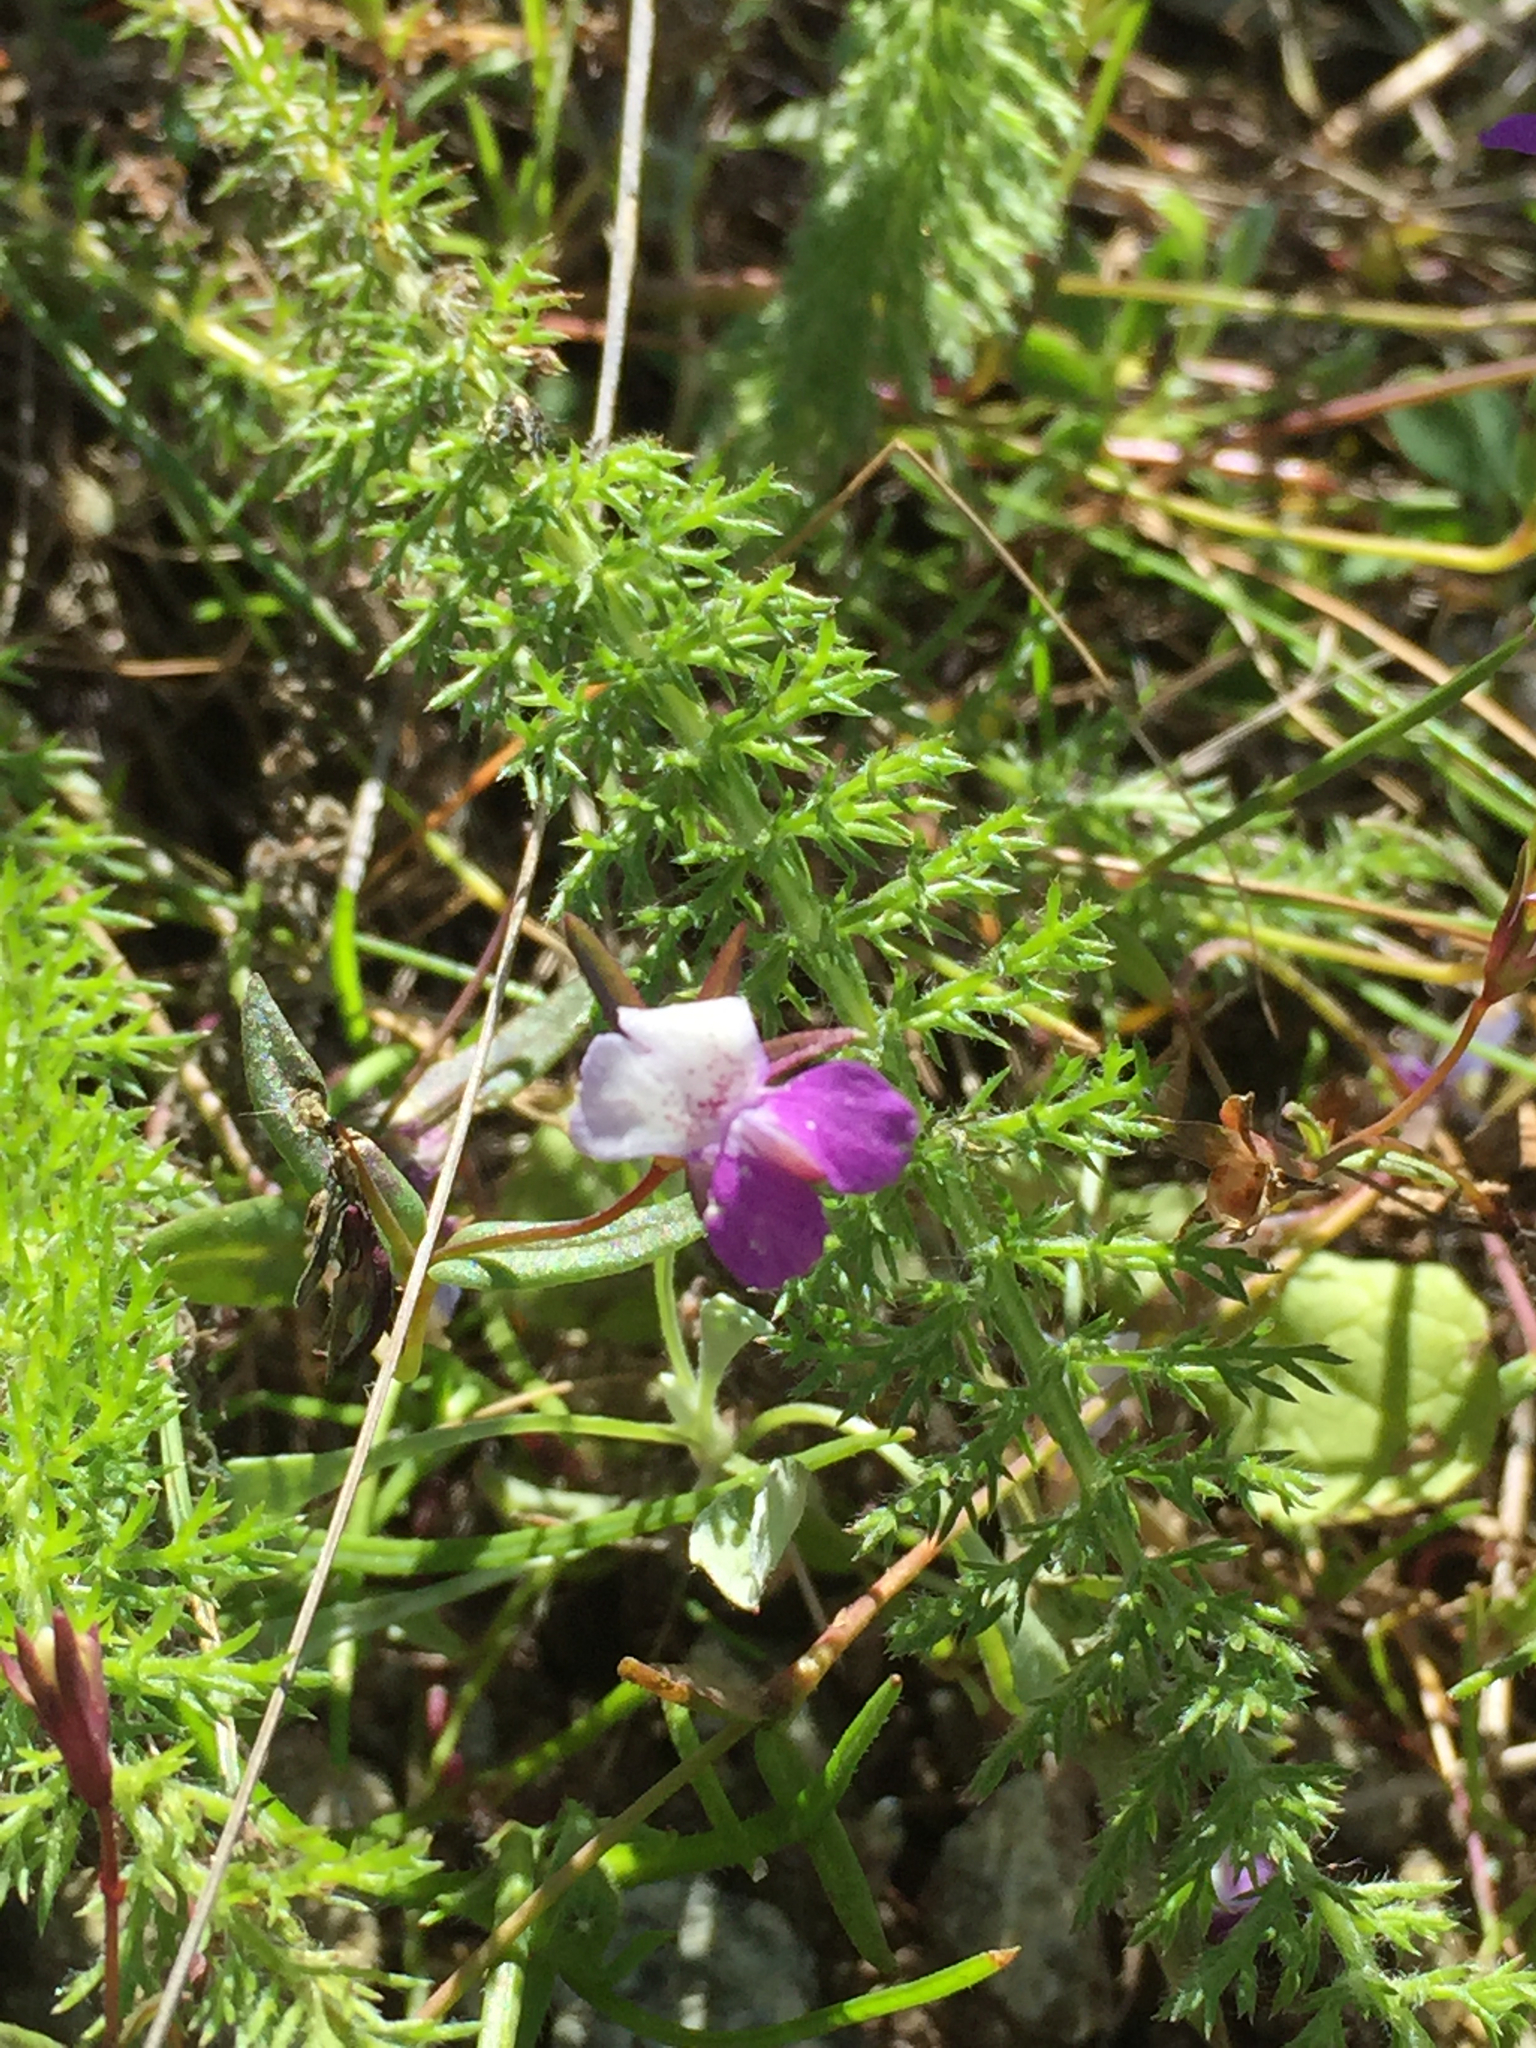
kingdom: Plantae
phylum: Tracheophyta
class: Magnoliopsida
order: Lamiales
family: Plantaginaceae
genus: Collinsia
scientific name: Collinsia sparsiflora
